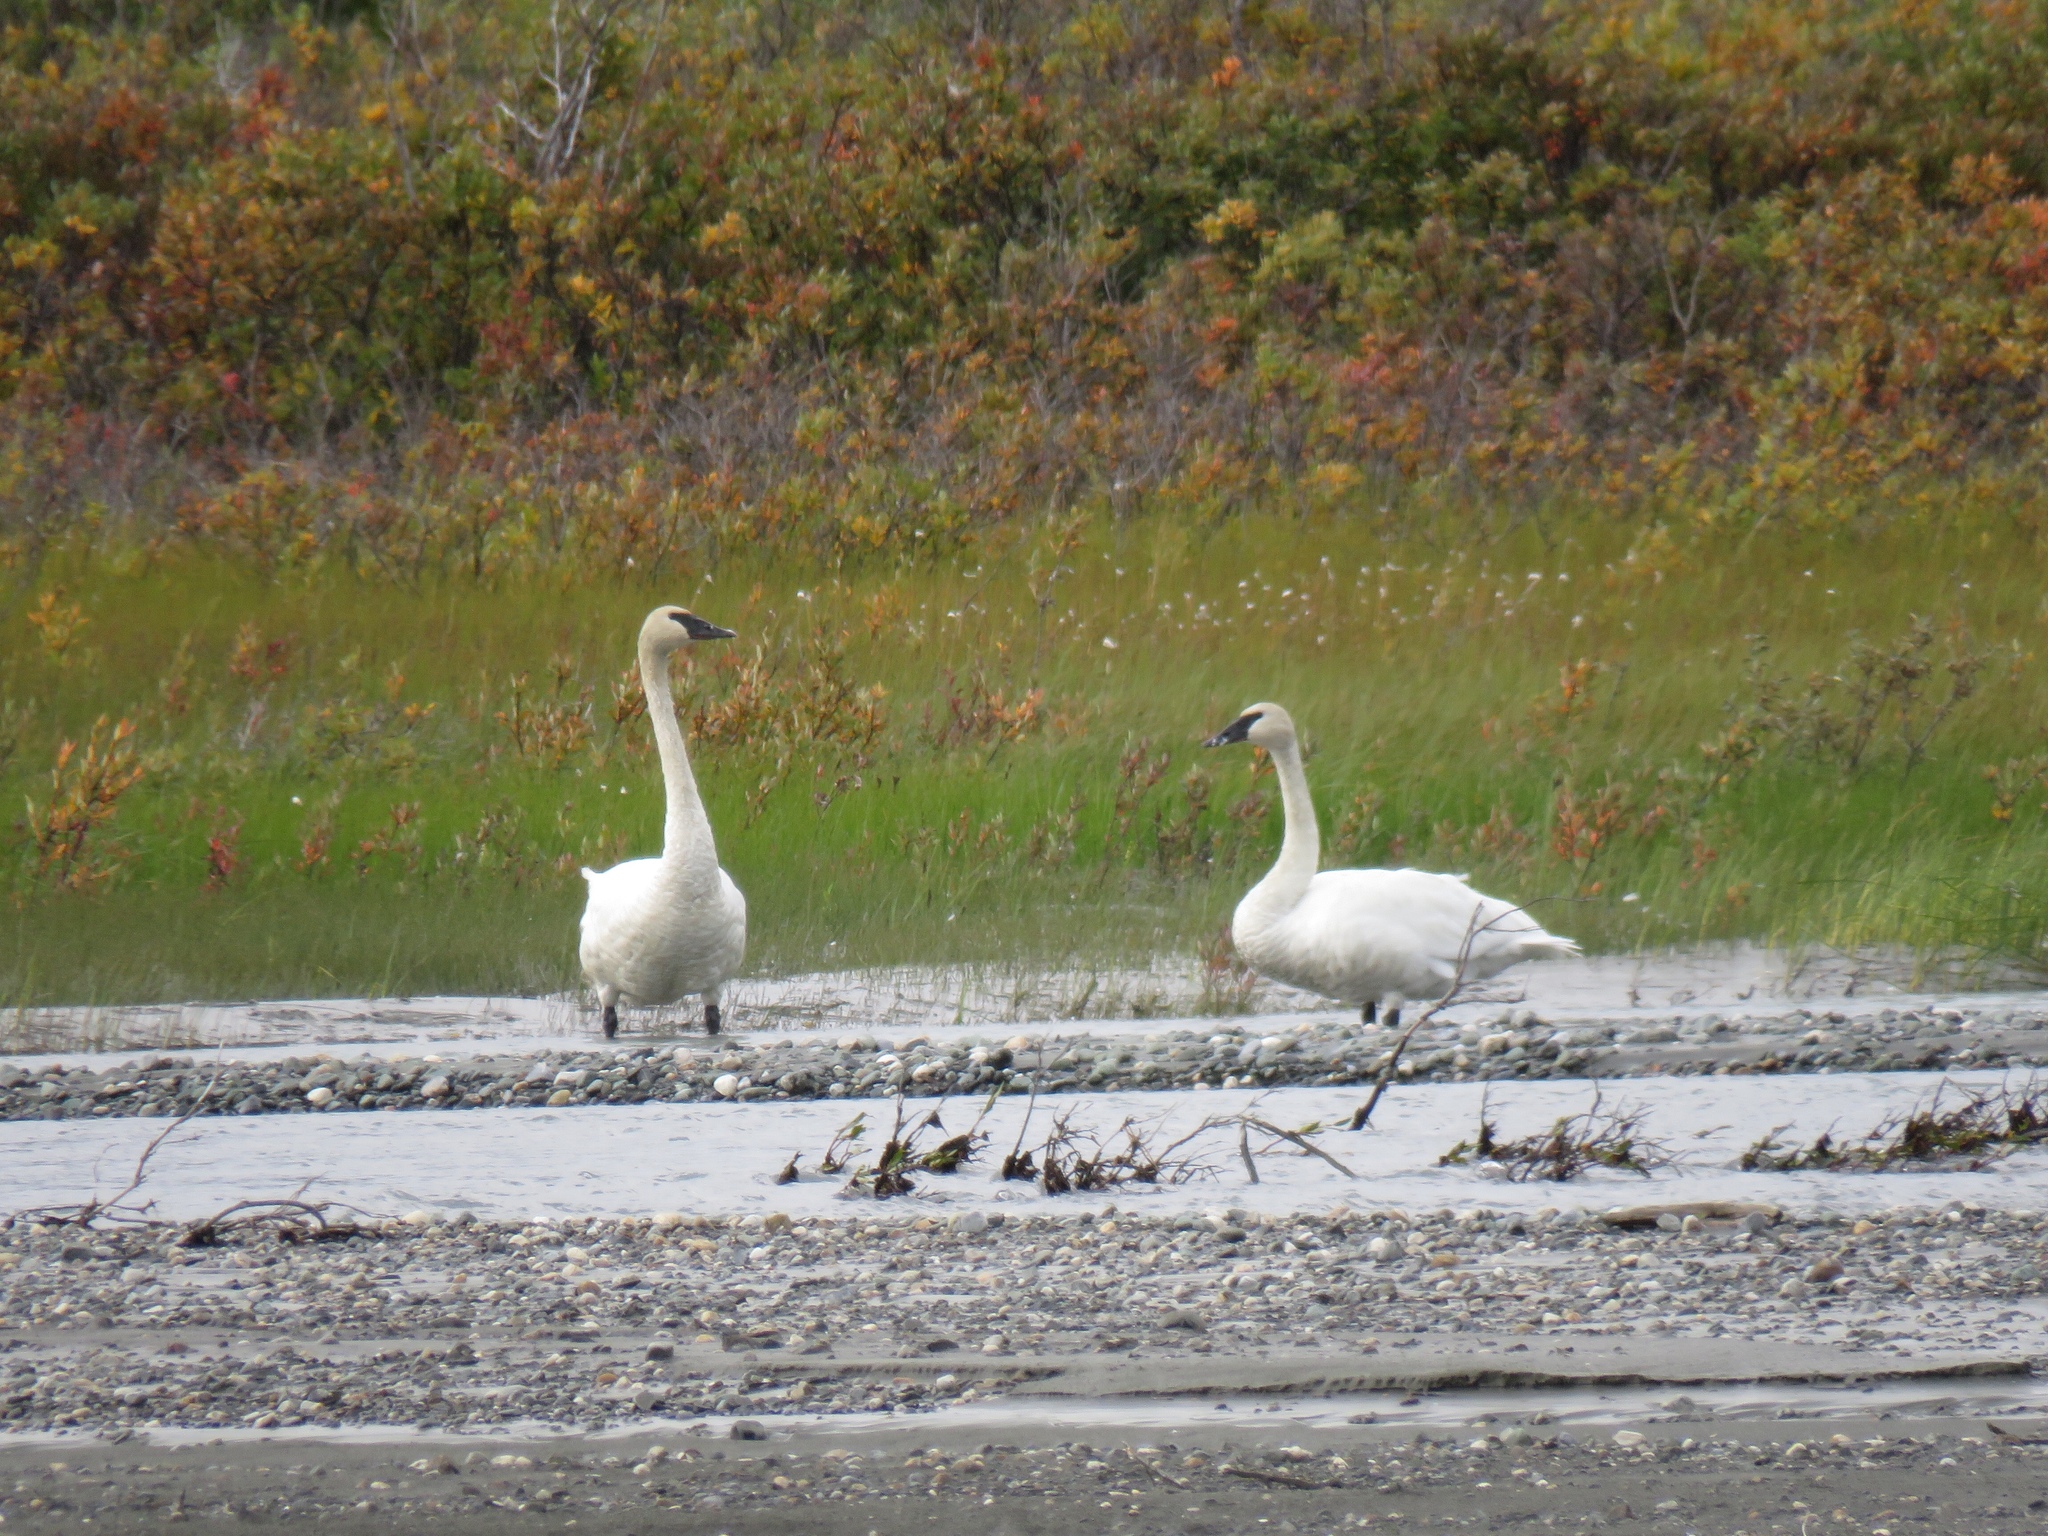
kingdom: Animalia
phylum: Chordata
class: Aves
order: Anseriformes
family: Anatidae
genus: Cygnus
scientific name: Cygnus buccinator
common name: Trumpeter swan
